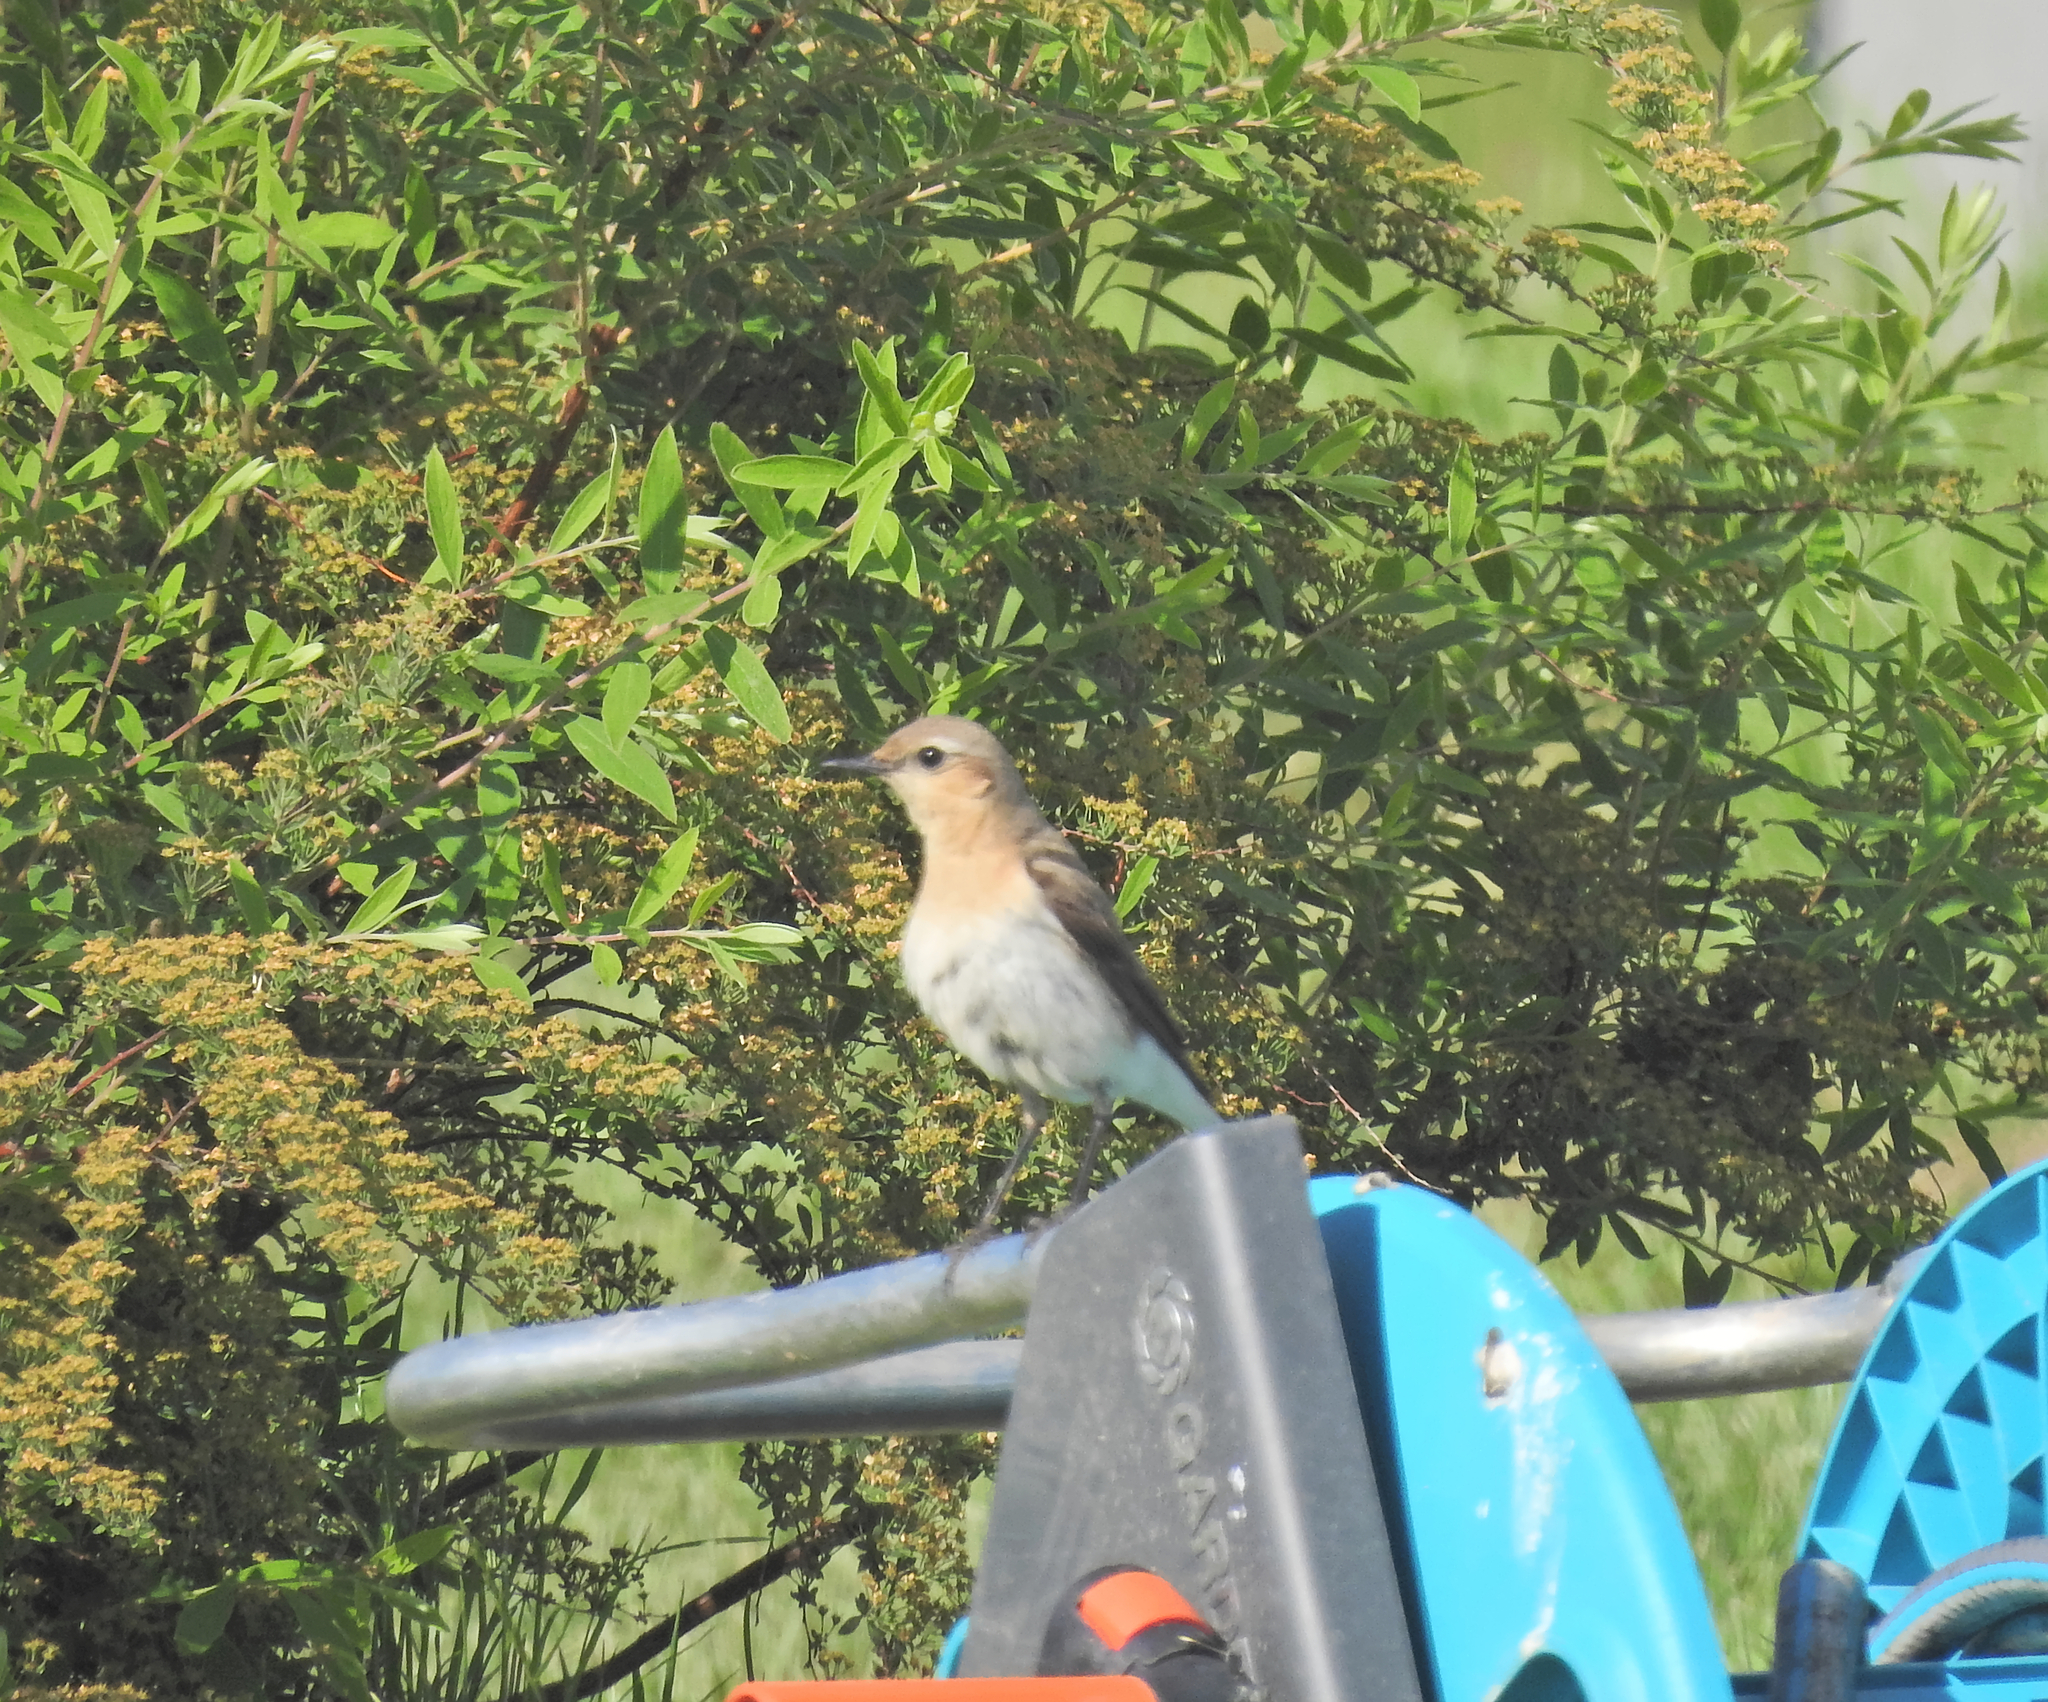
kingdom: Animalia
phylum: Chordata
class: Aves
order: Passeriformes
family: Muscicapidae
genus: Oenanthe
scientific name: Oenanthe oenanthe
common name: Northern wheatear
